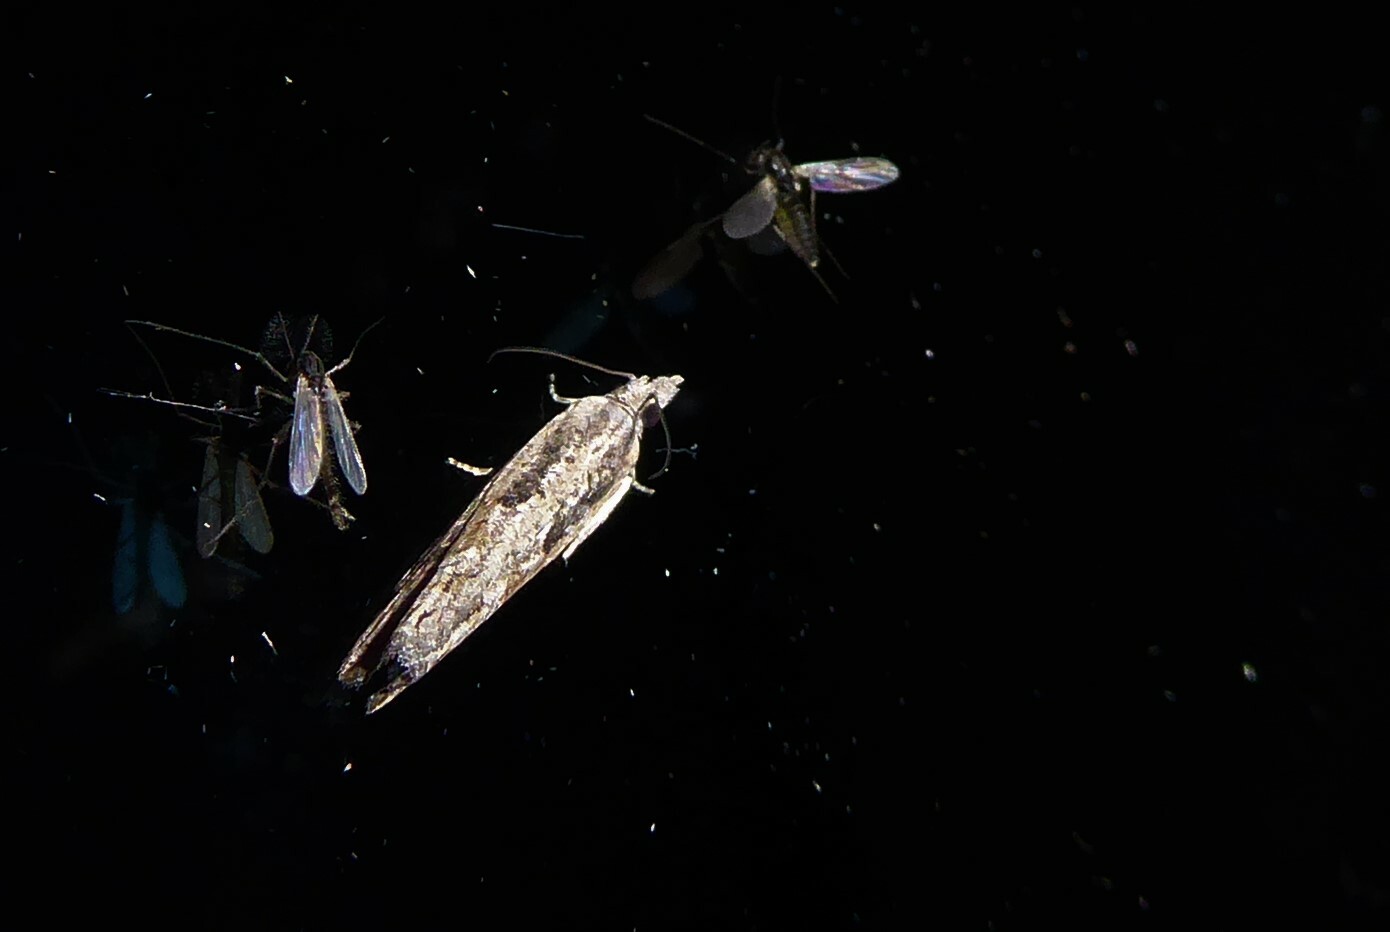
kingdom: Animalia
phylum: Arthropoda
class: Insecta
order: Lepidoptera
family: Tortricidae
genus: Strepsicrates
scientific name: Strepsicrates ejectana
